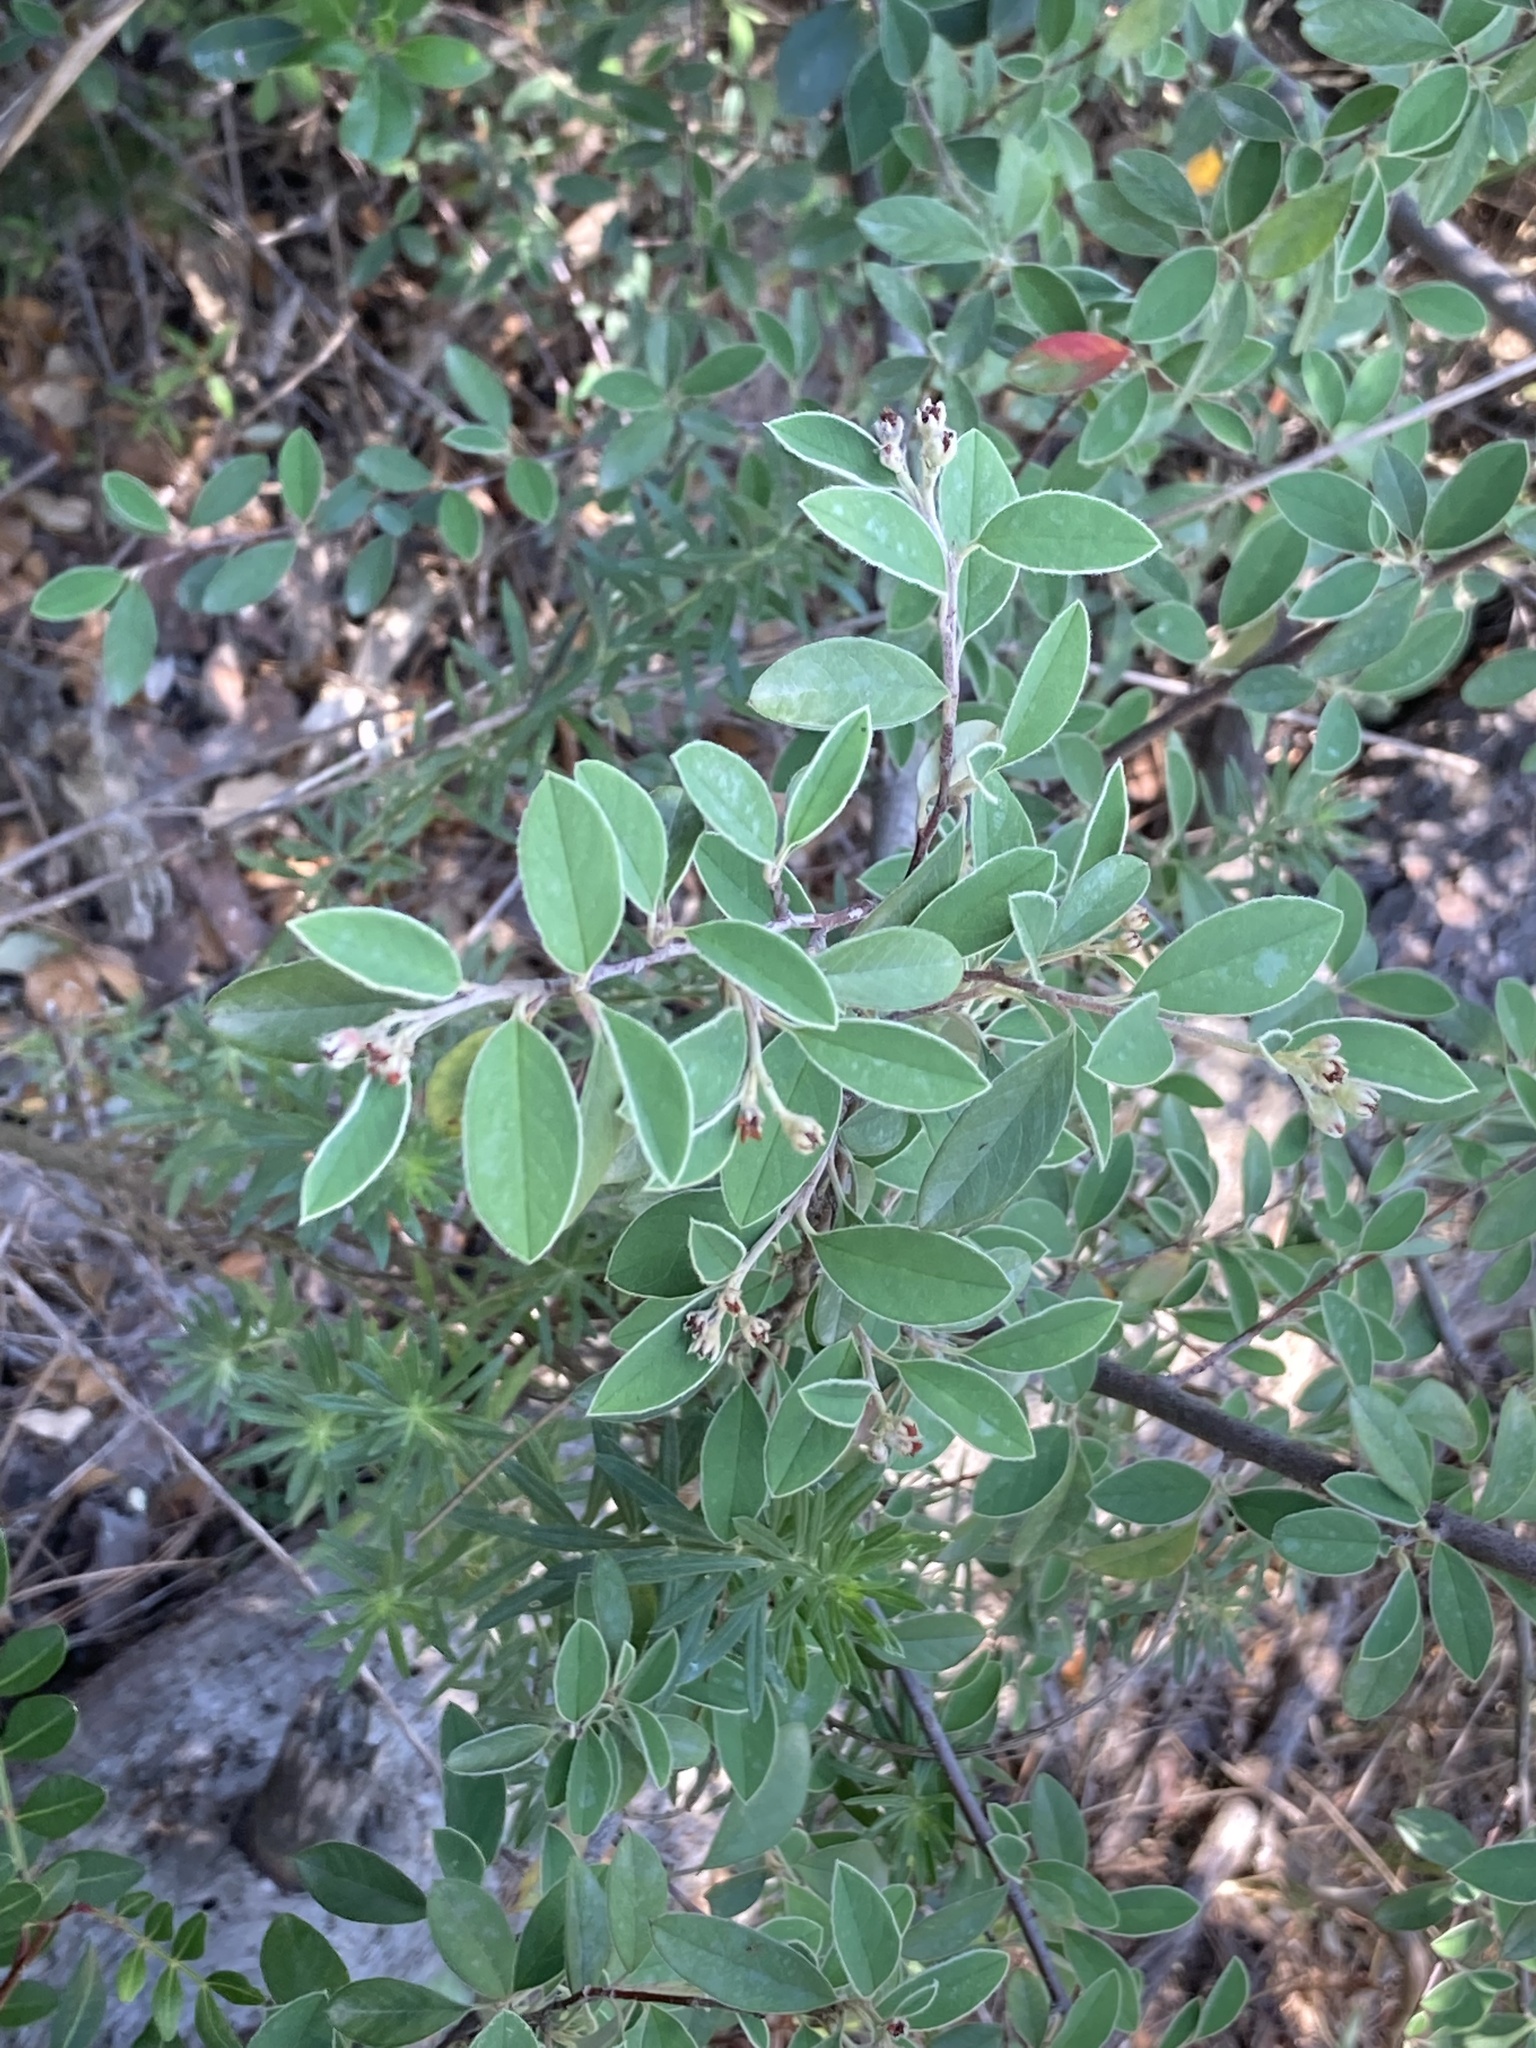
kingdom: Plantae
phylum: Tracheophyta
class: Magnoliopsida
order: Rosales
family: Rosaceae
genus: Cotoneaster
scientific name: Cotoneaster pannosus
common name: Silverleaf cotoneaster
